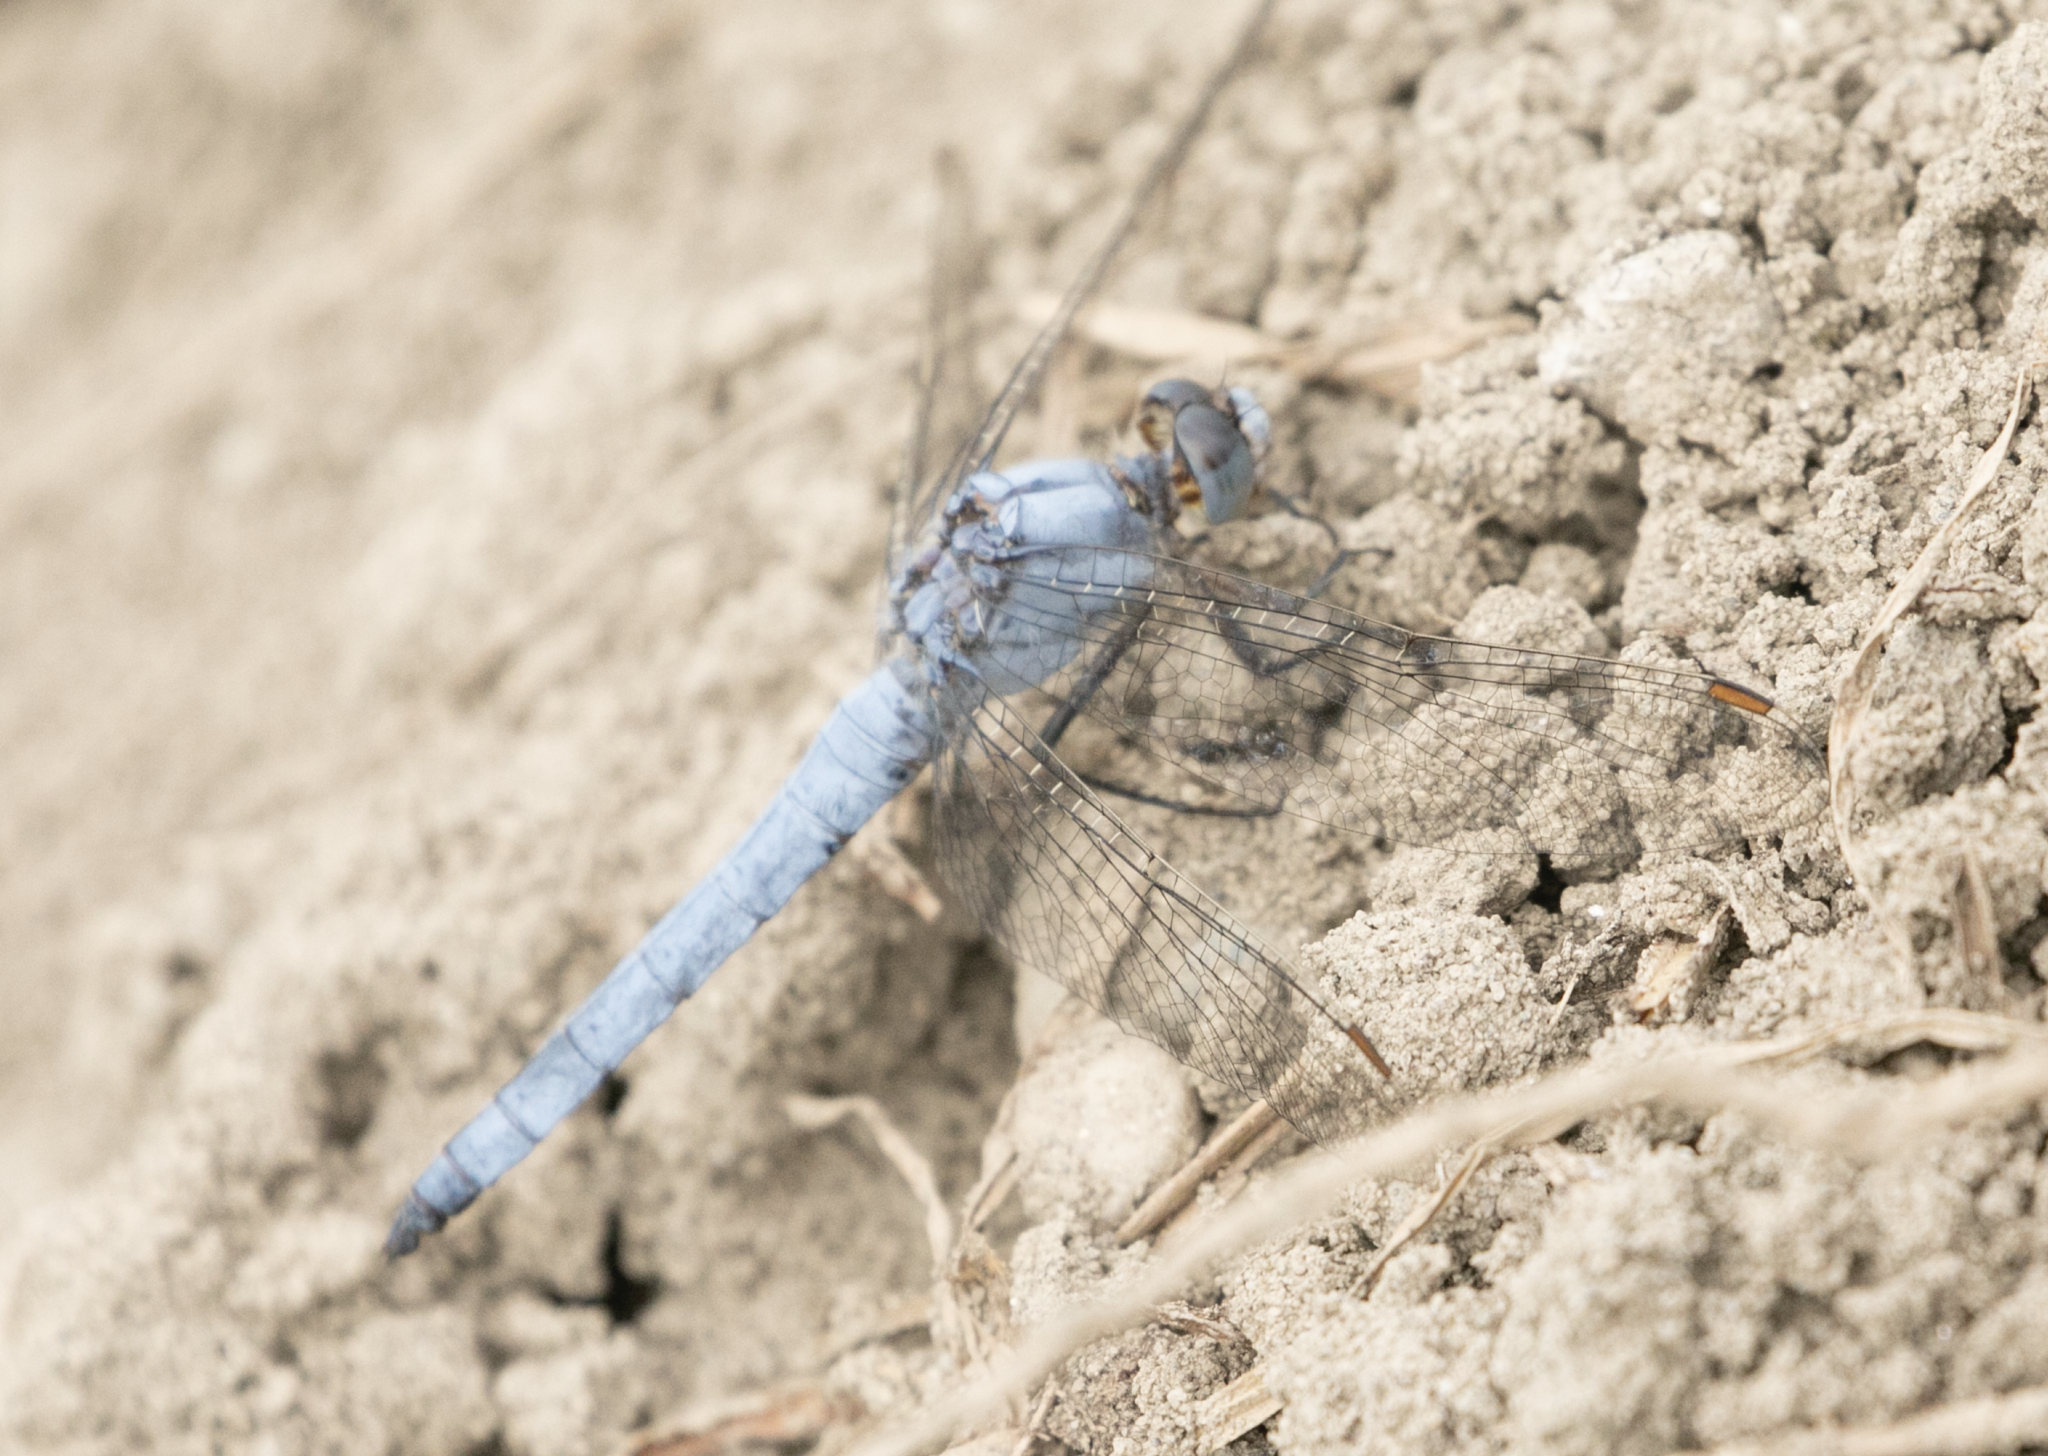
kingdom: Animalia
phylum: Arthropoda
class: Insecta
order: Odonata
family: Libellulidae
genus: Orthetrum
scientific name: Orthetrum brunneum
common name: Southern skimmer
